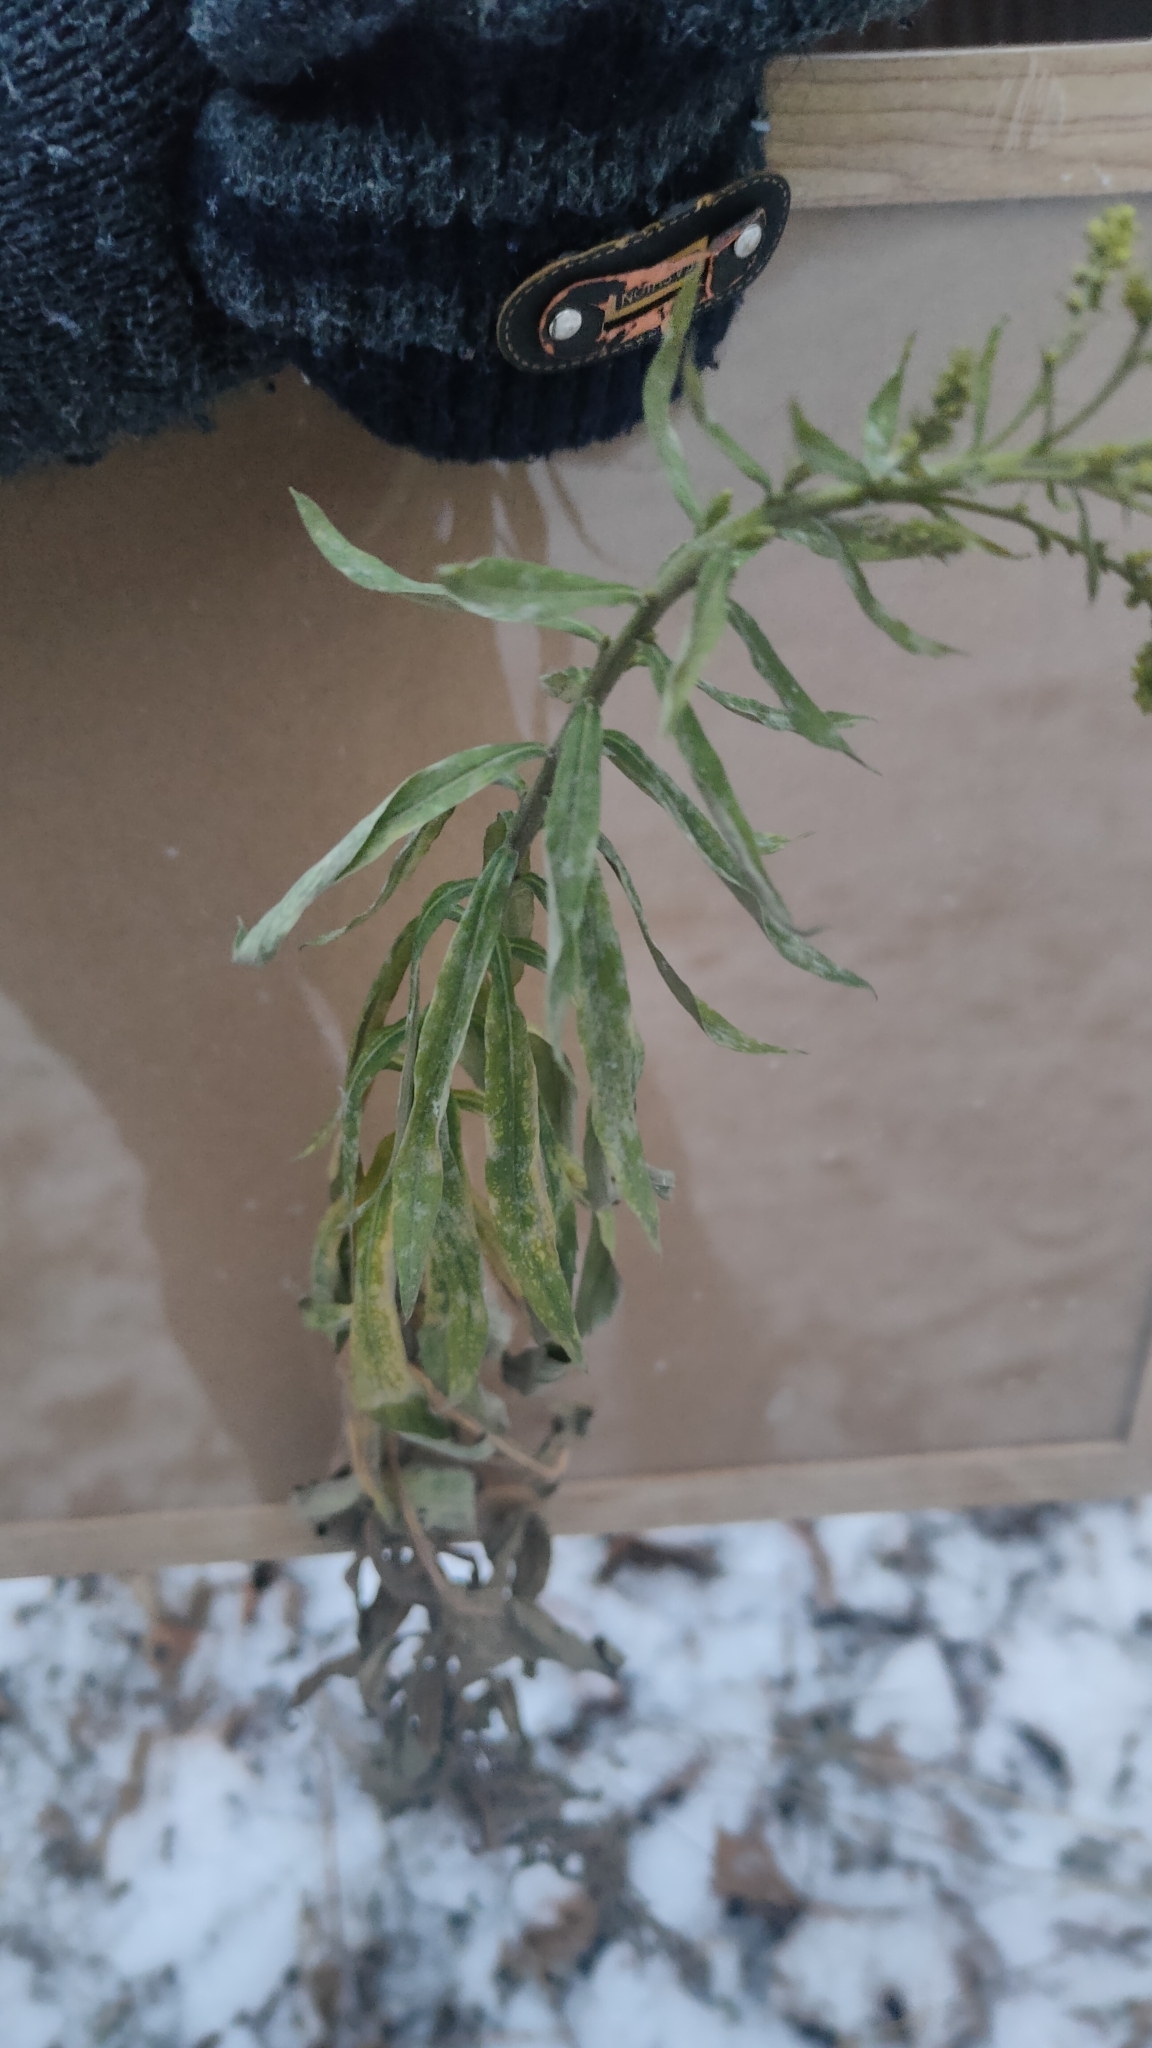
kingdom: Plantae
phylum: Tracheophyta
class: Magnoliopsida
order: Asterales
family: Asteraceae
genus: Solidago
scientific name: Solidago canadensis
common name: Canada goldenrod
